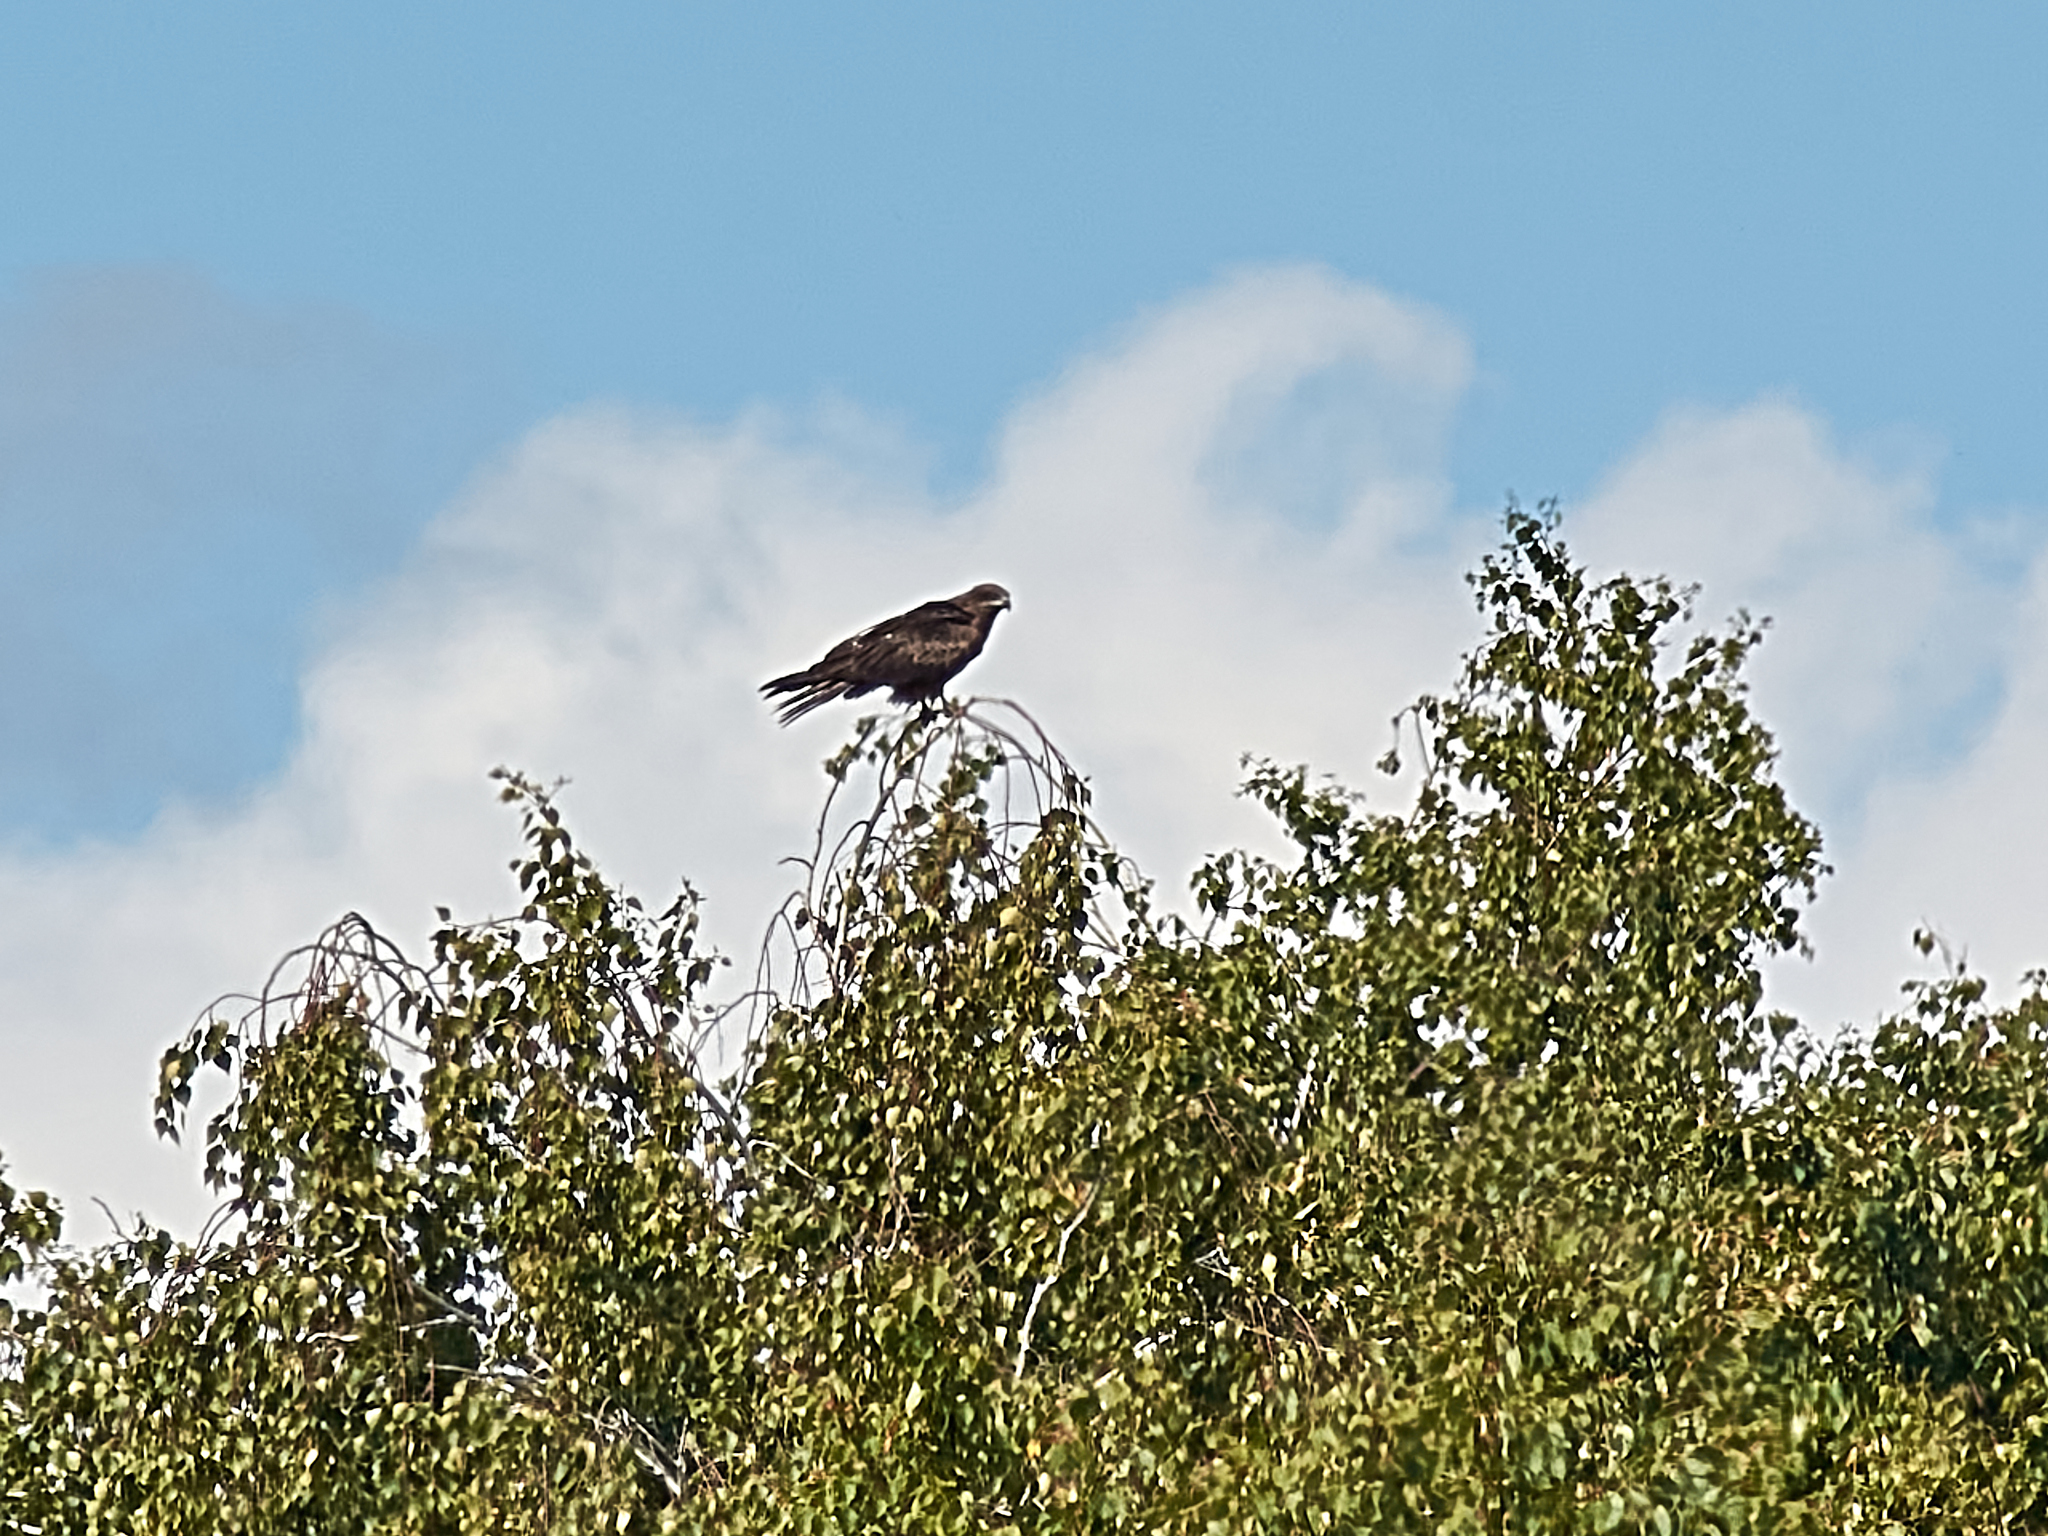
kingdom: Animalia
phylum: Chordata
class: Aves
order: Accipitriformes
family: Accipitridae
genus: Milvus
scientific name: Milvus migrans
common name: Black kite
